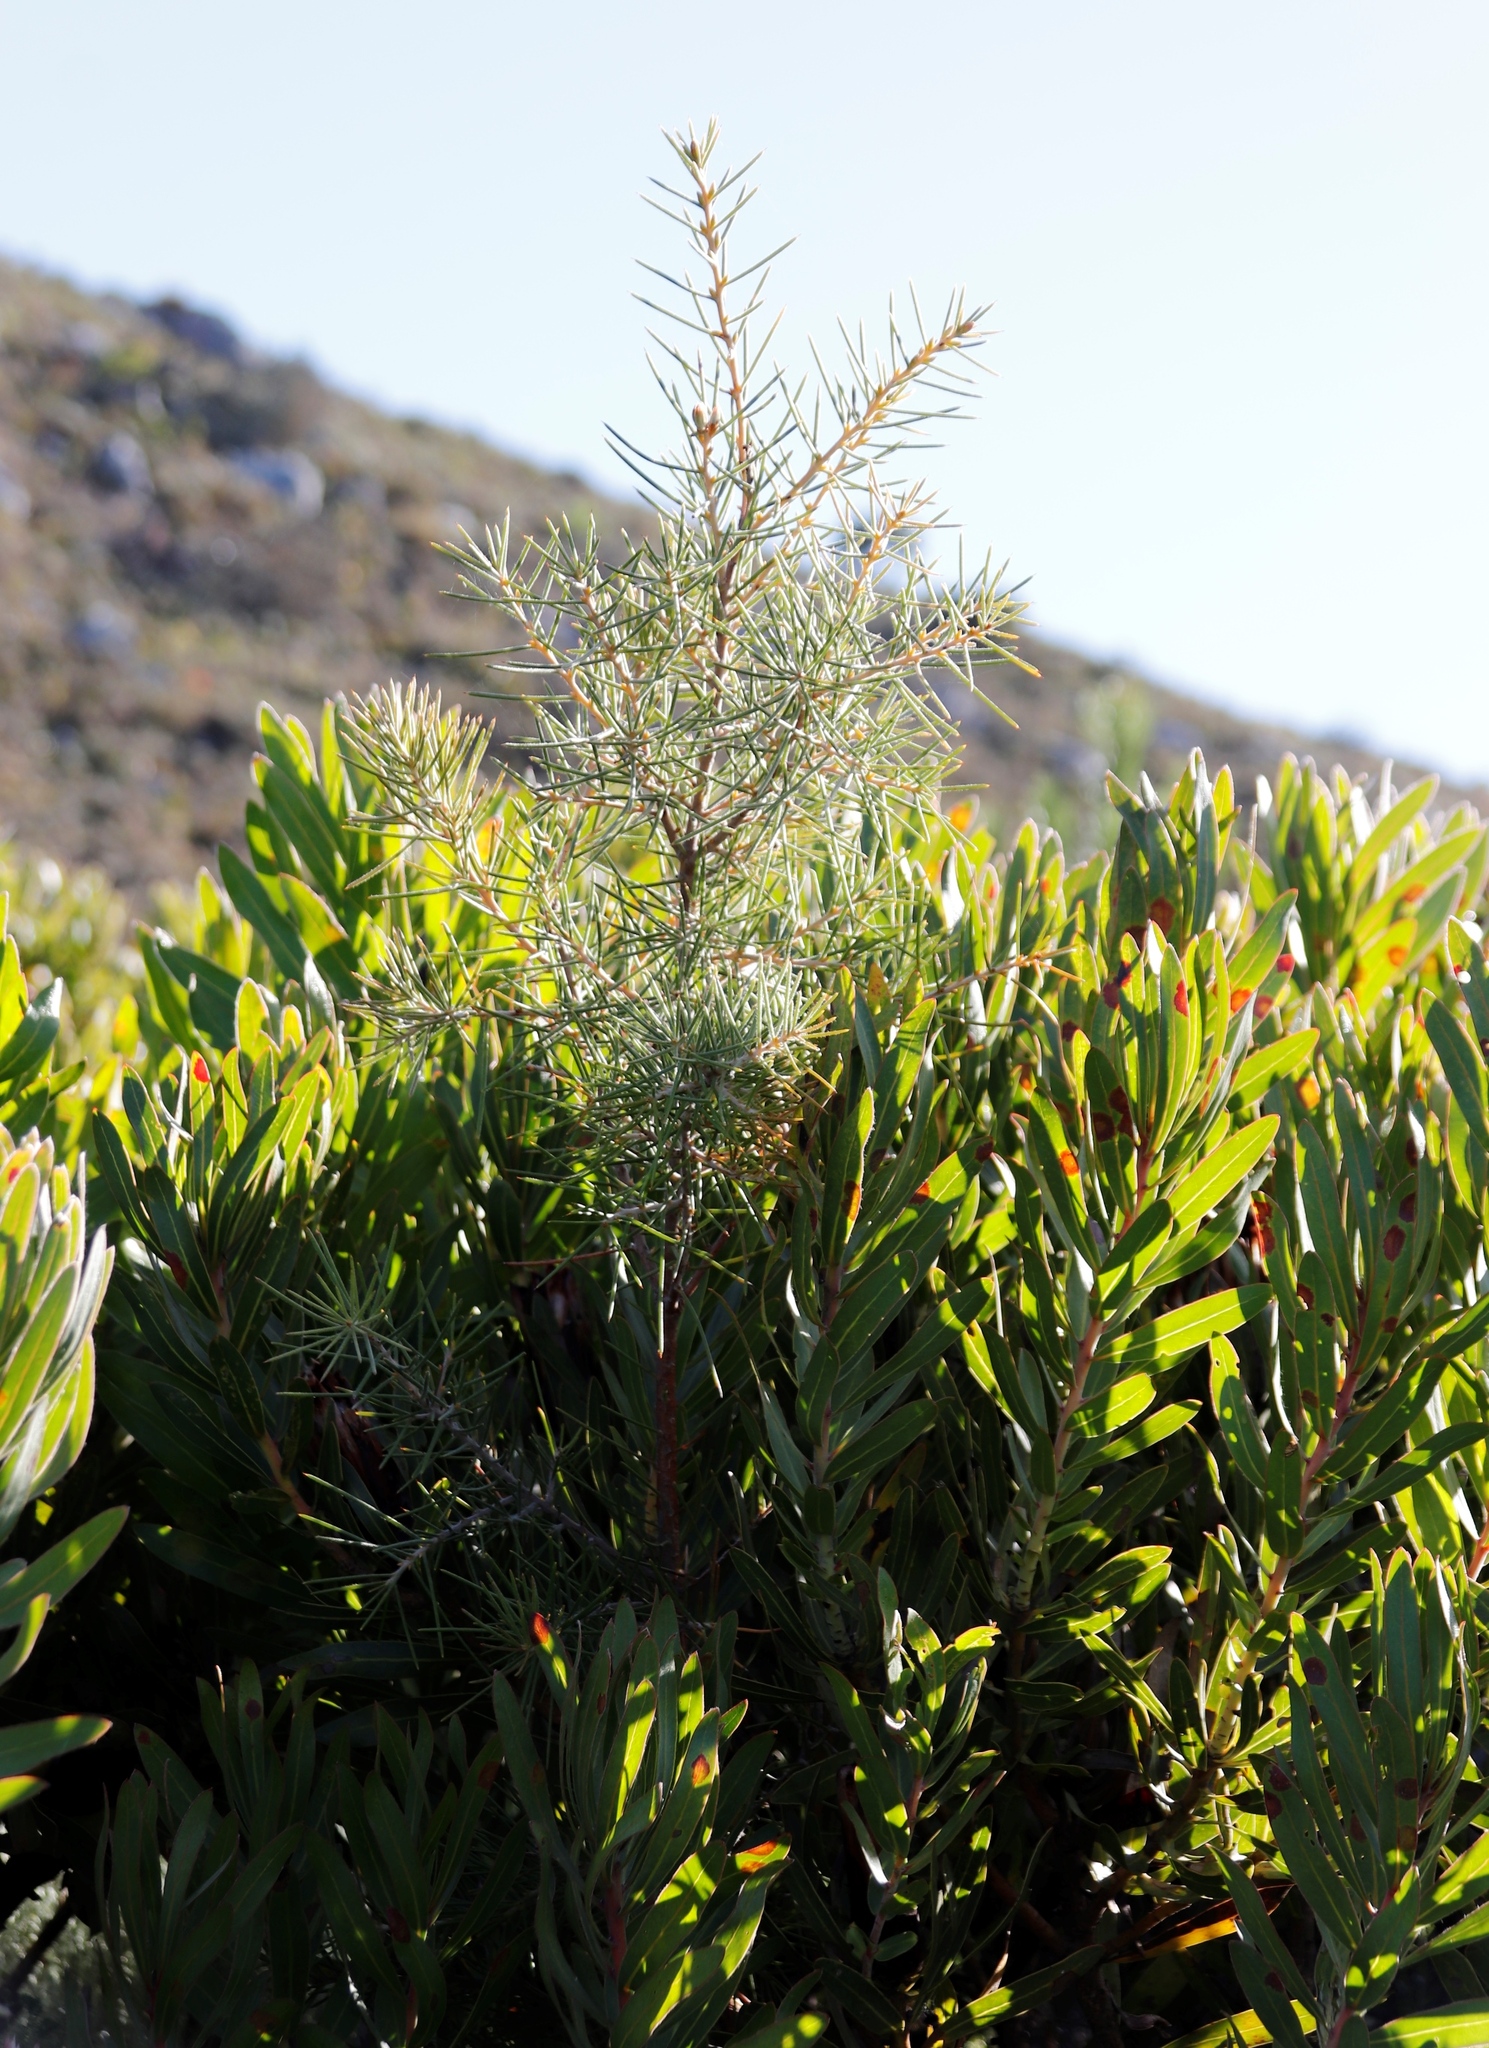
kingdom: Plantae
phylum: Tracheophyta
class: Magnoliopsida
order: Proteales
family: Proteaceae
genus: Hakea
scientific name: Hakea gibbosa
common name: Rock hakea
